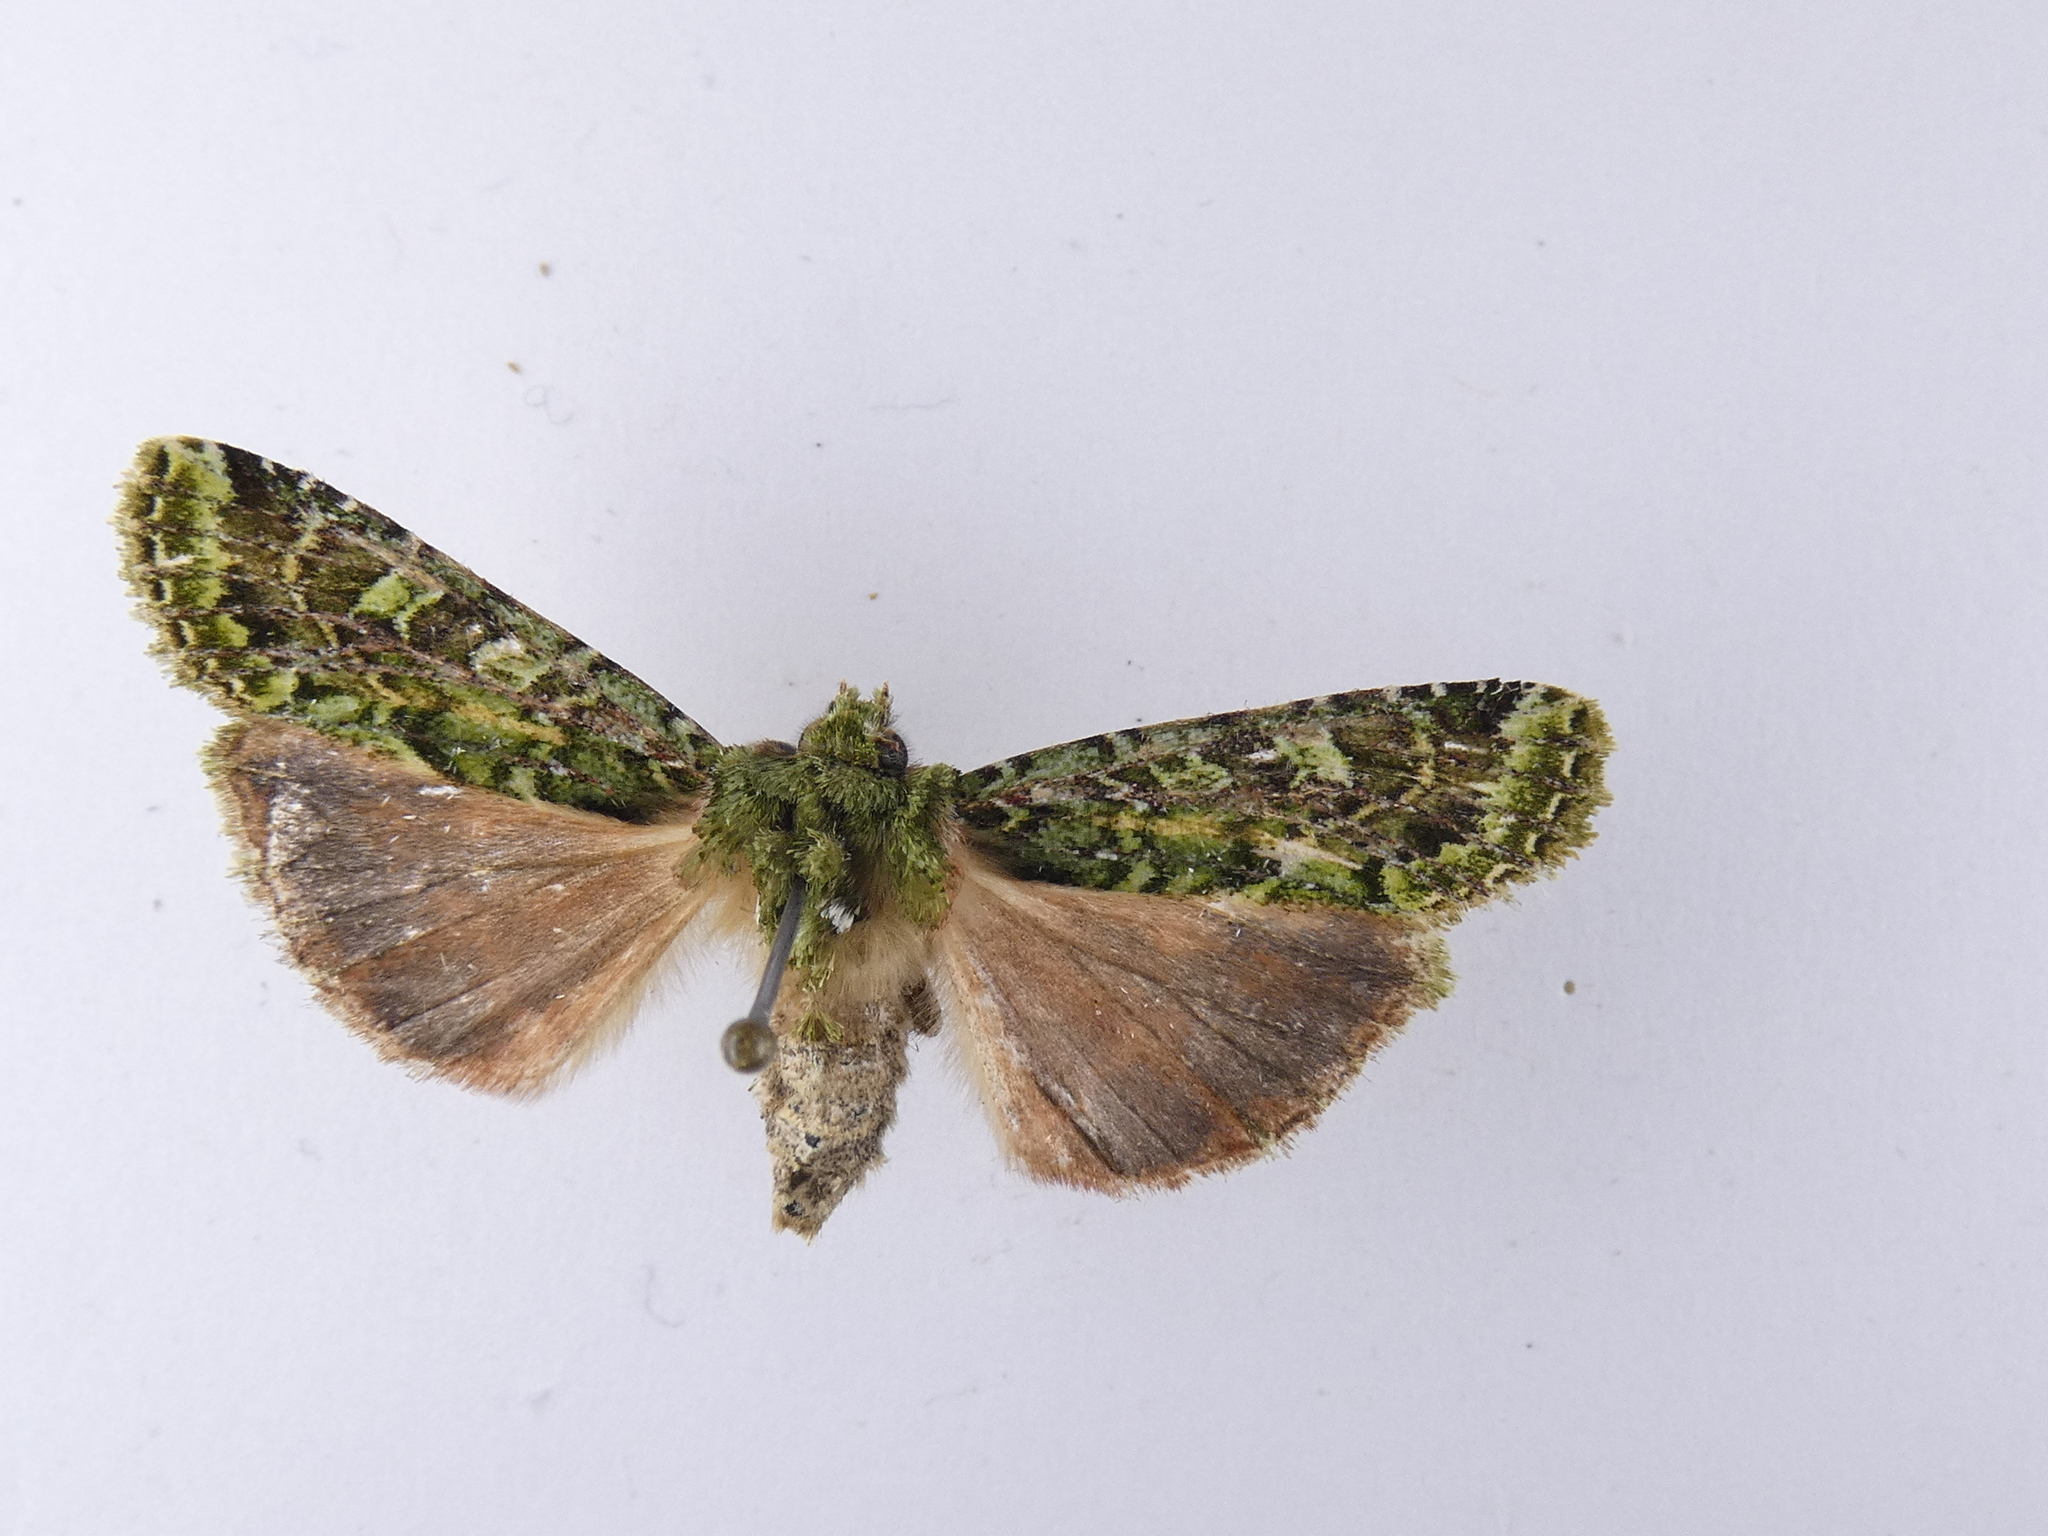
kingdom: Animalia
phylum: Arthropoda
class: Insecta
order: Lepidoptera
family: Noctuidae
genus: Feredayia
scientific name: Feredayia grammosa
